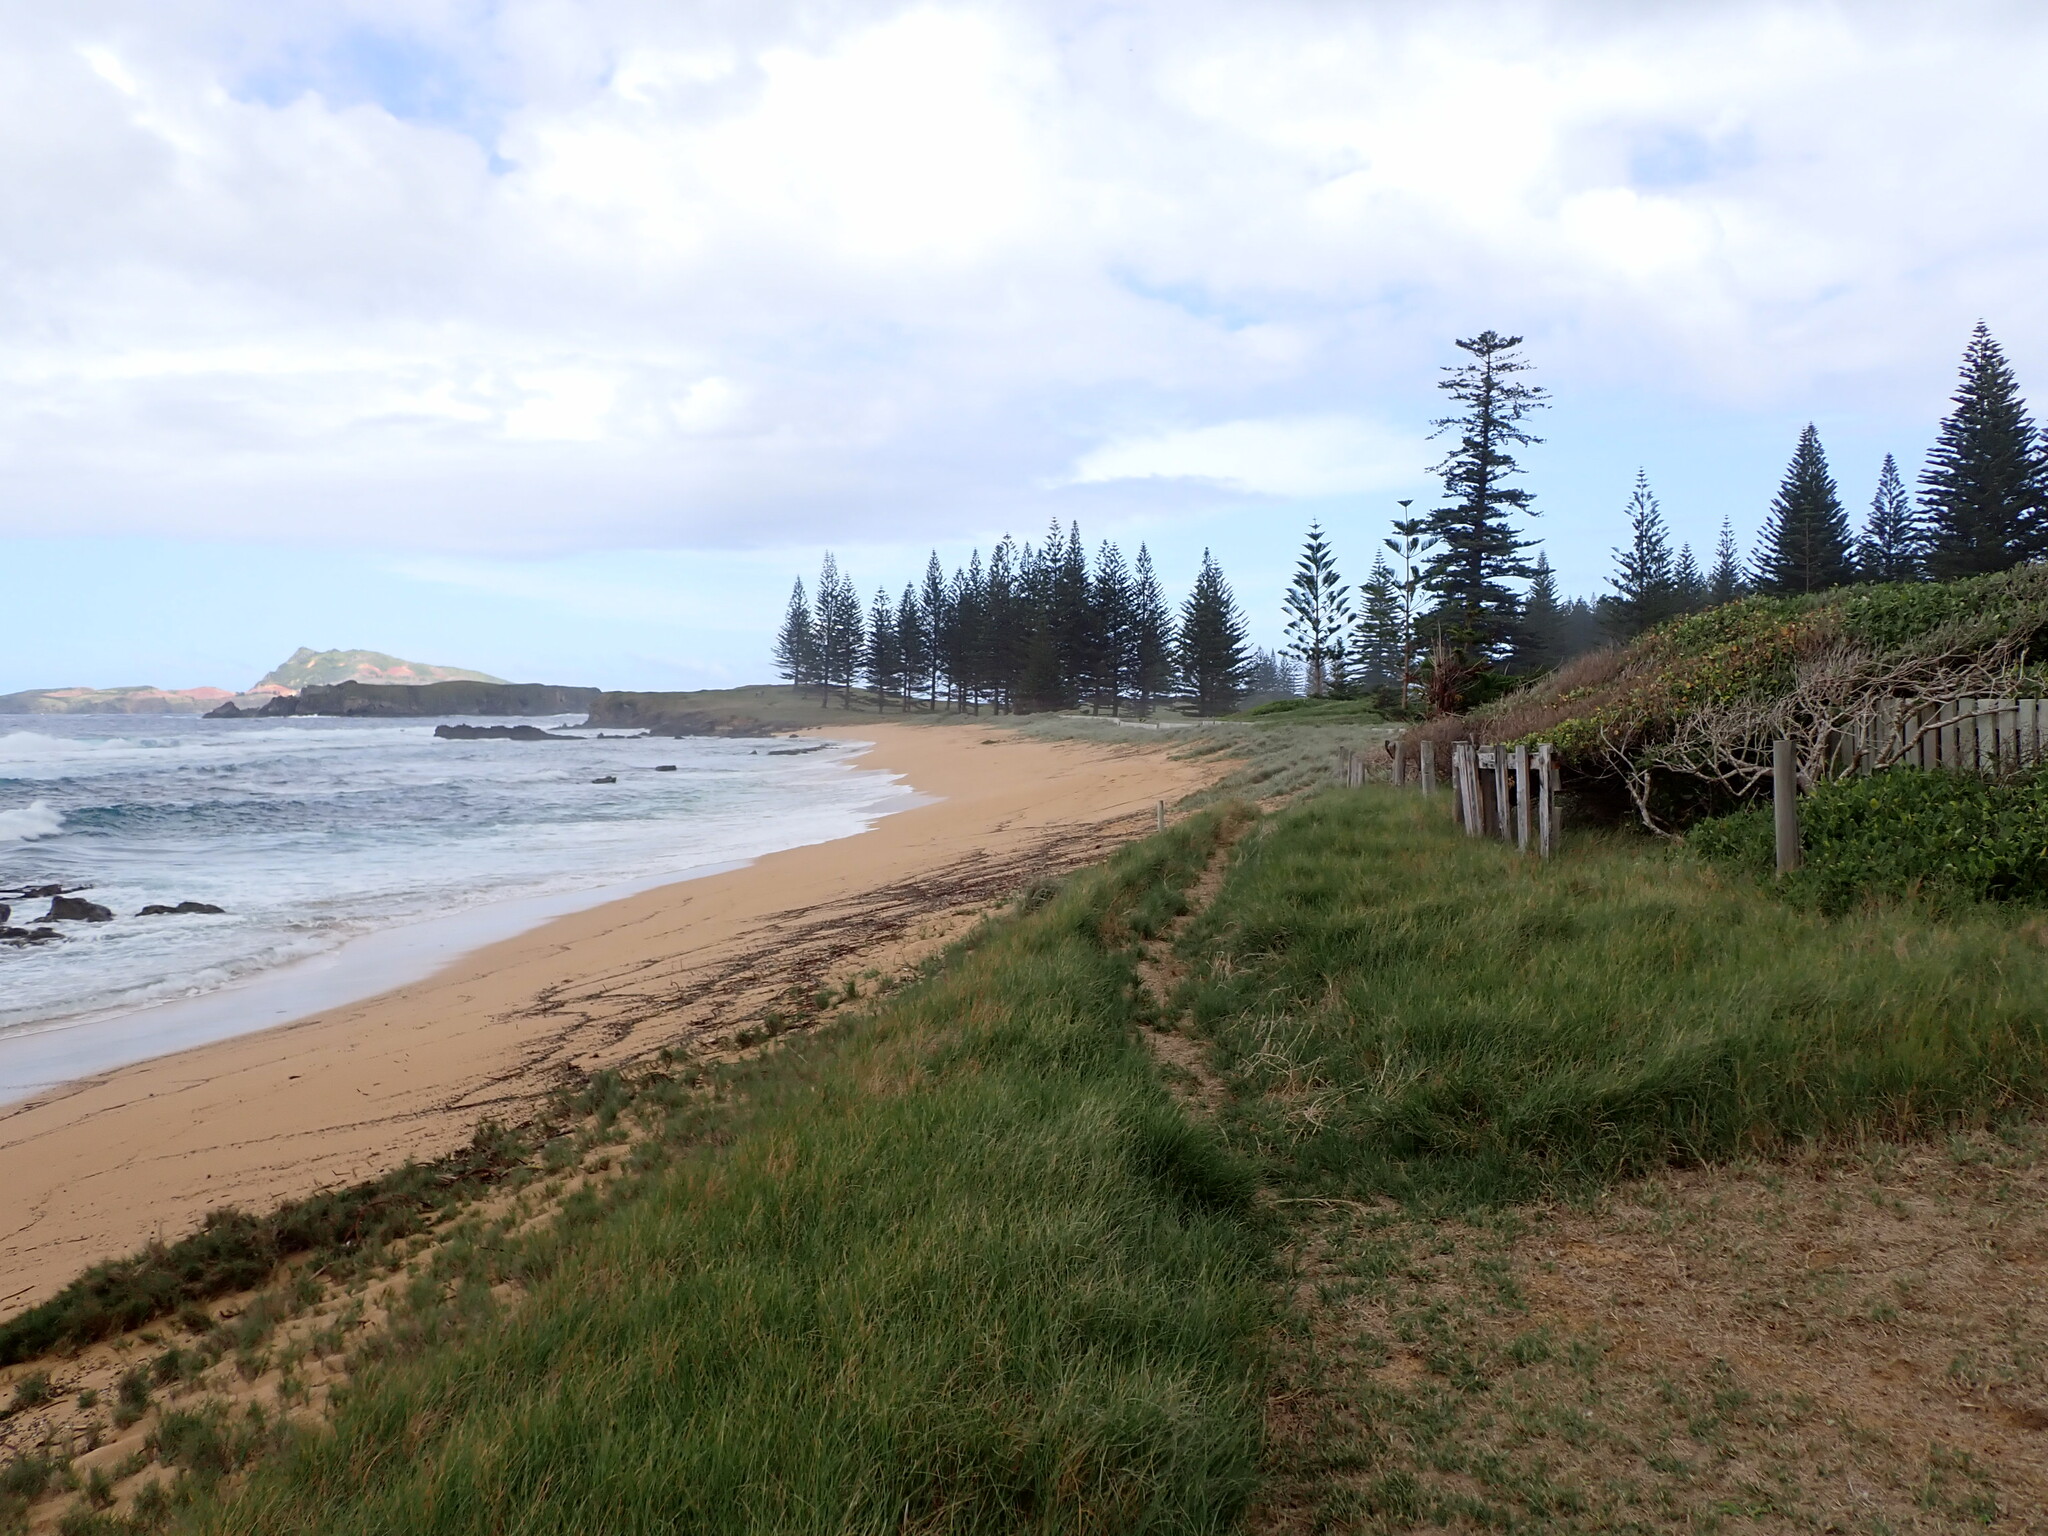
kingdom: Plantae
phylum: Tracheophyta
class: Pinopsida
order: Pinales
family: Araucariaceae
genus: Araucaria
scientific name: Araucaria heterophylla
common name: Norfolk island pine
